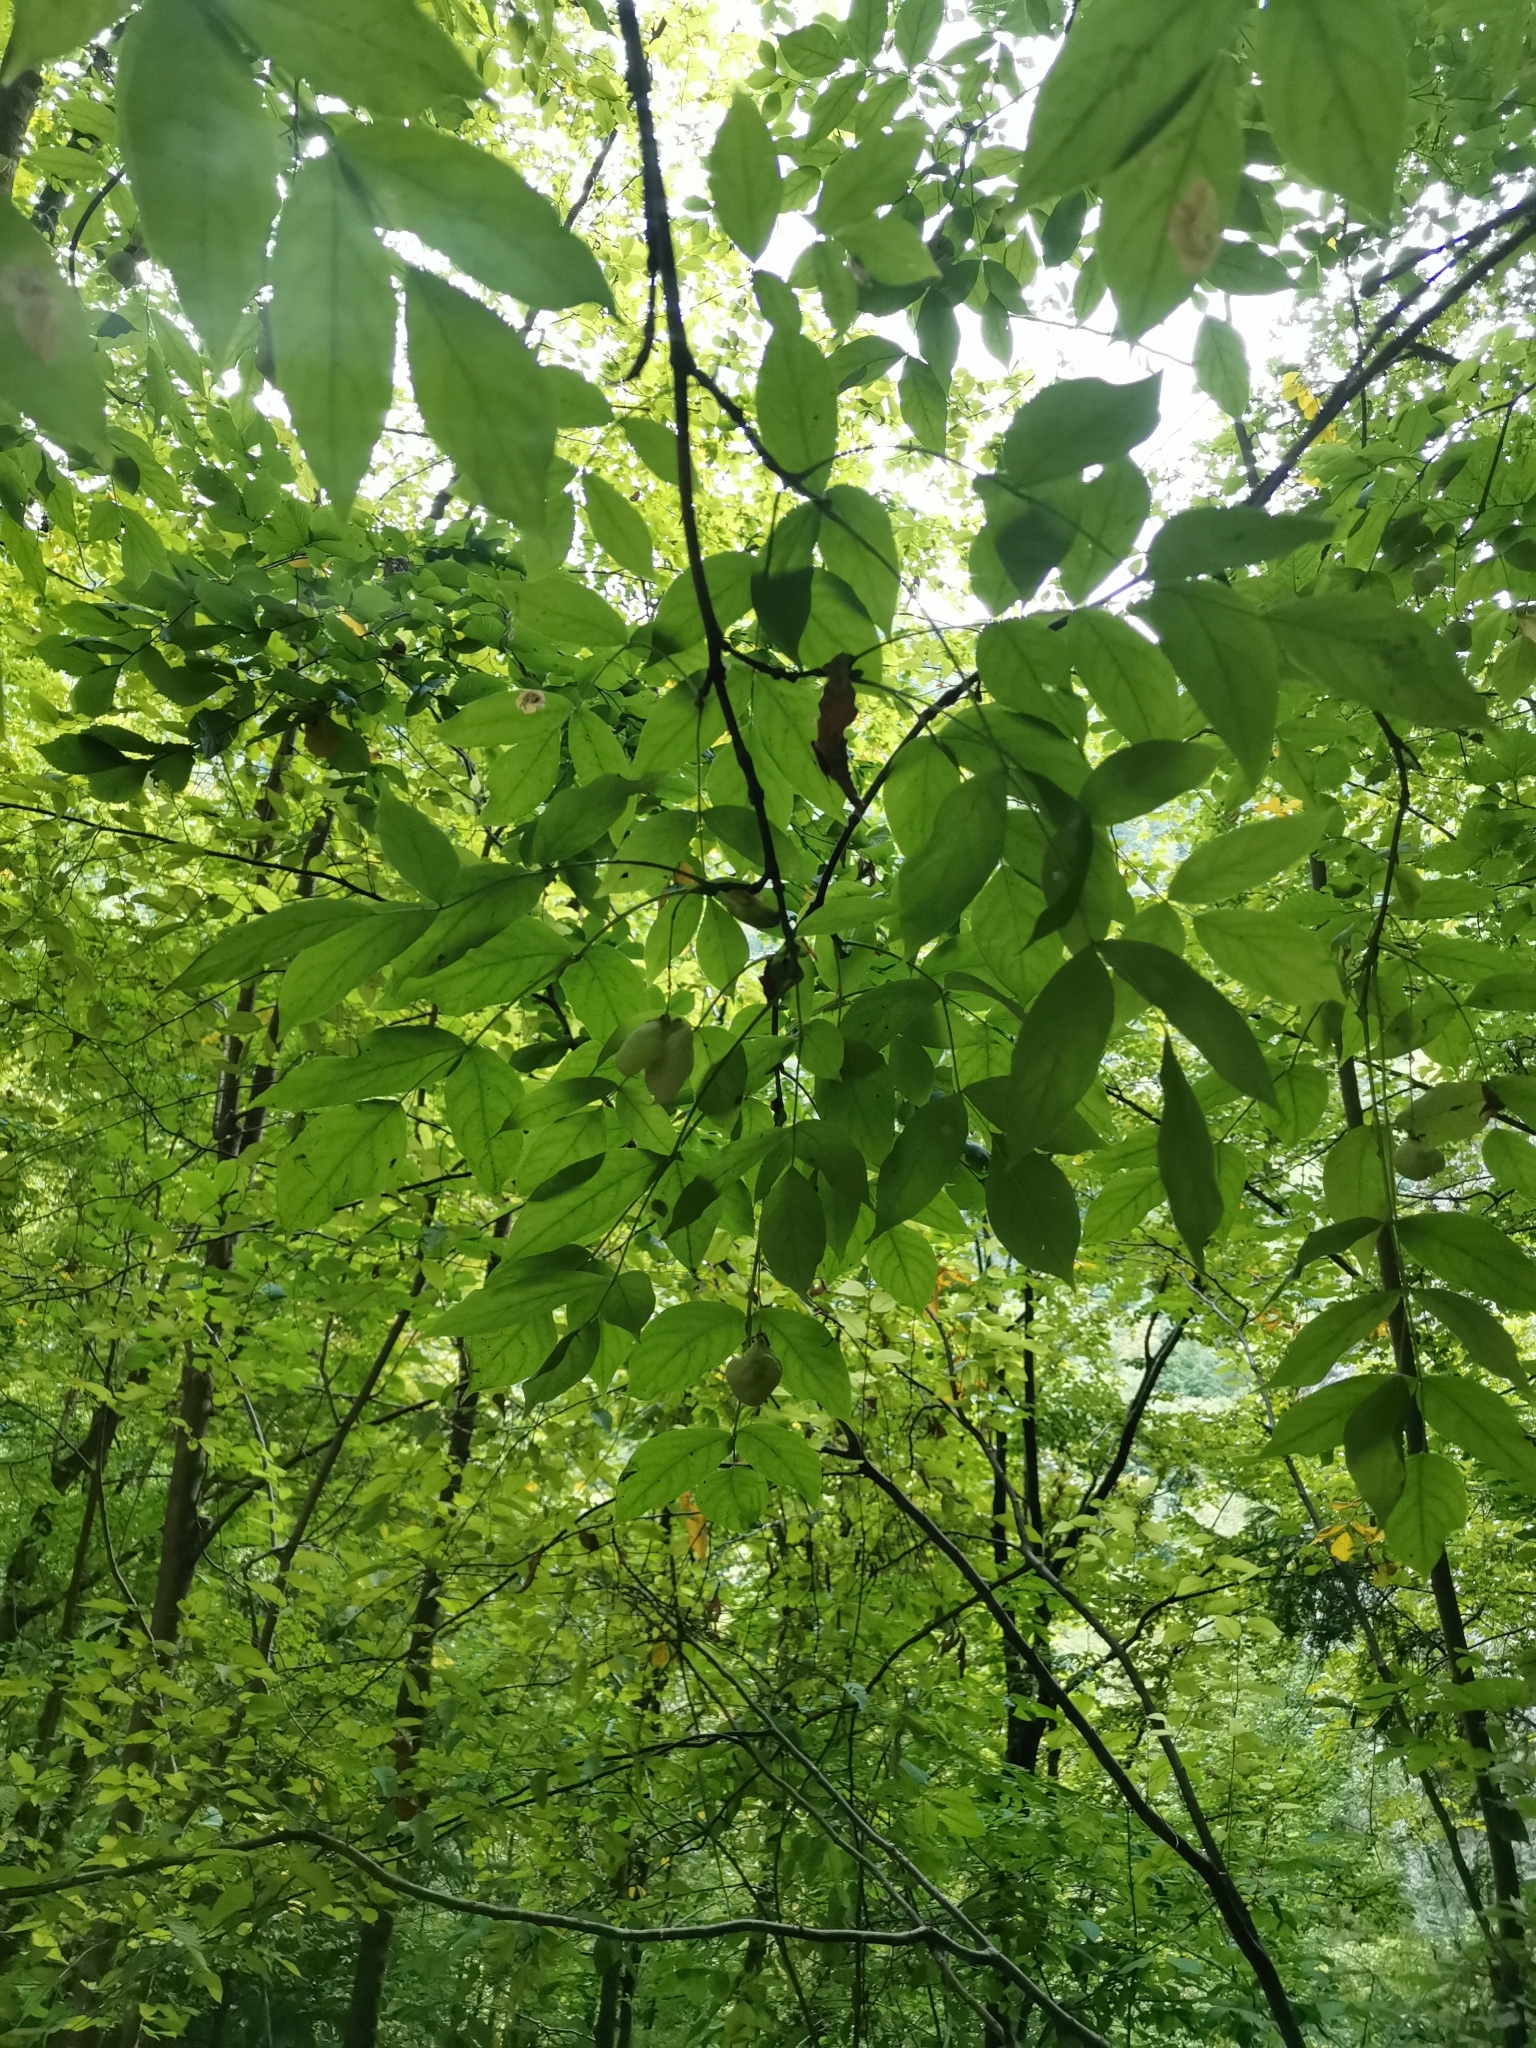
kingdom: Plantae
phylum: Tracheophyta
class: Magnoliopsida
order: Crossosomatales
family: Staphyleaceae
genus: Staphylea
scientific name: Staphylea pinnata
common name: Bladdernut
